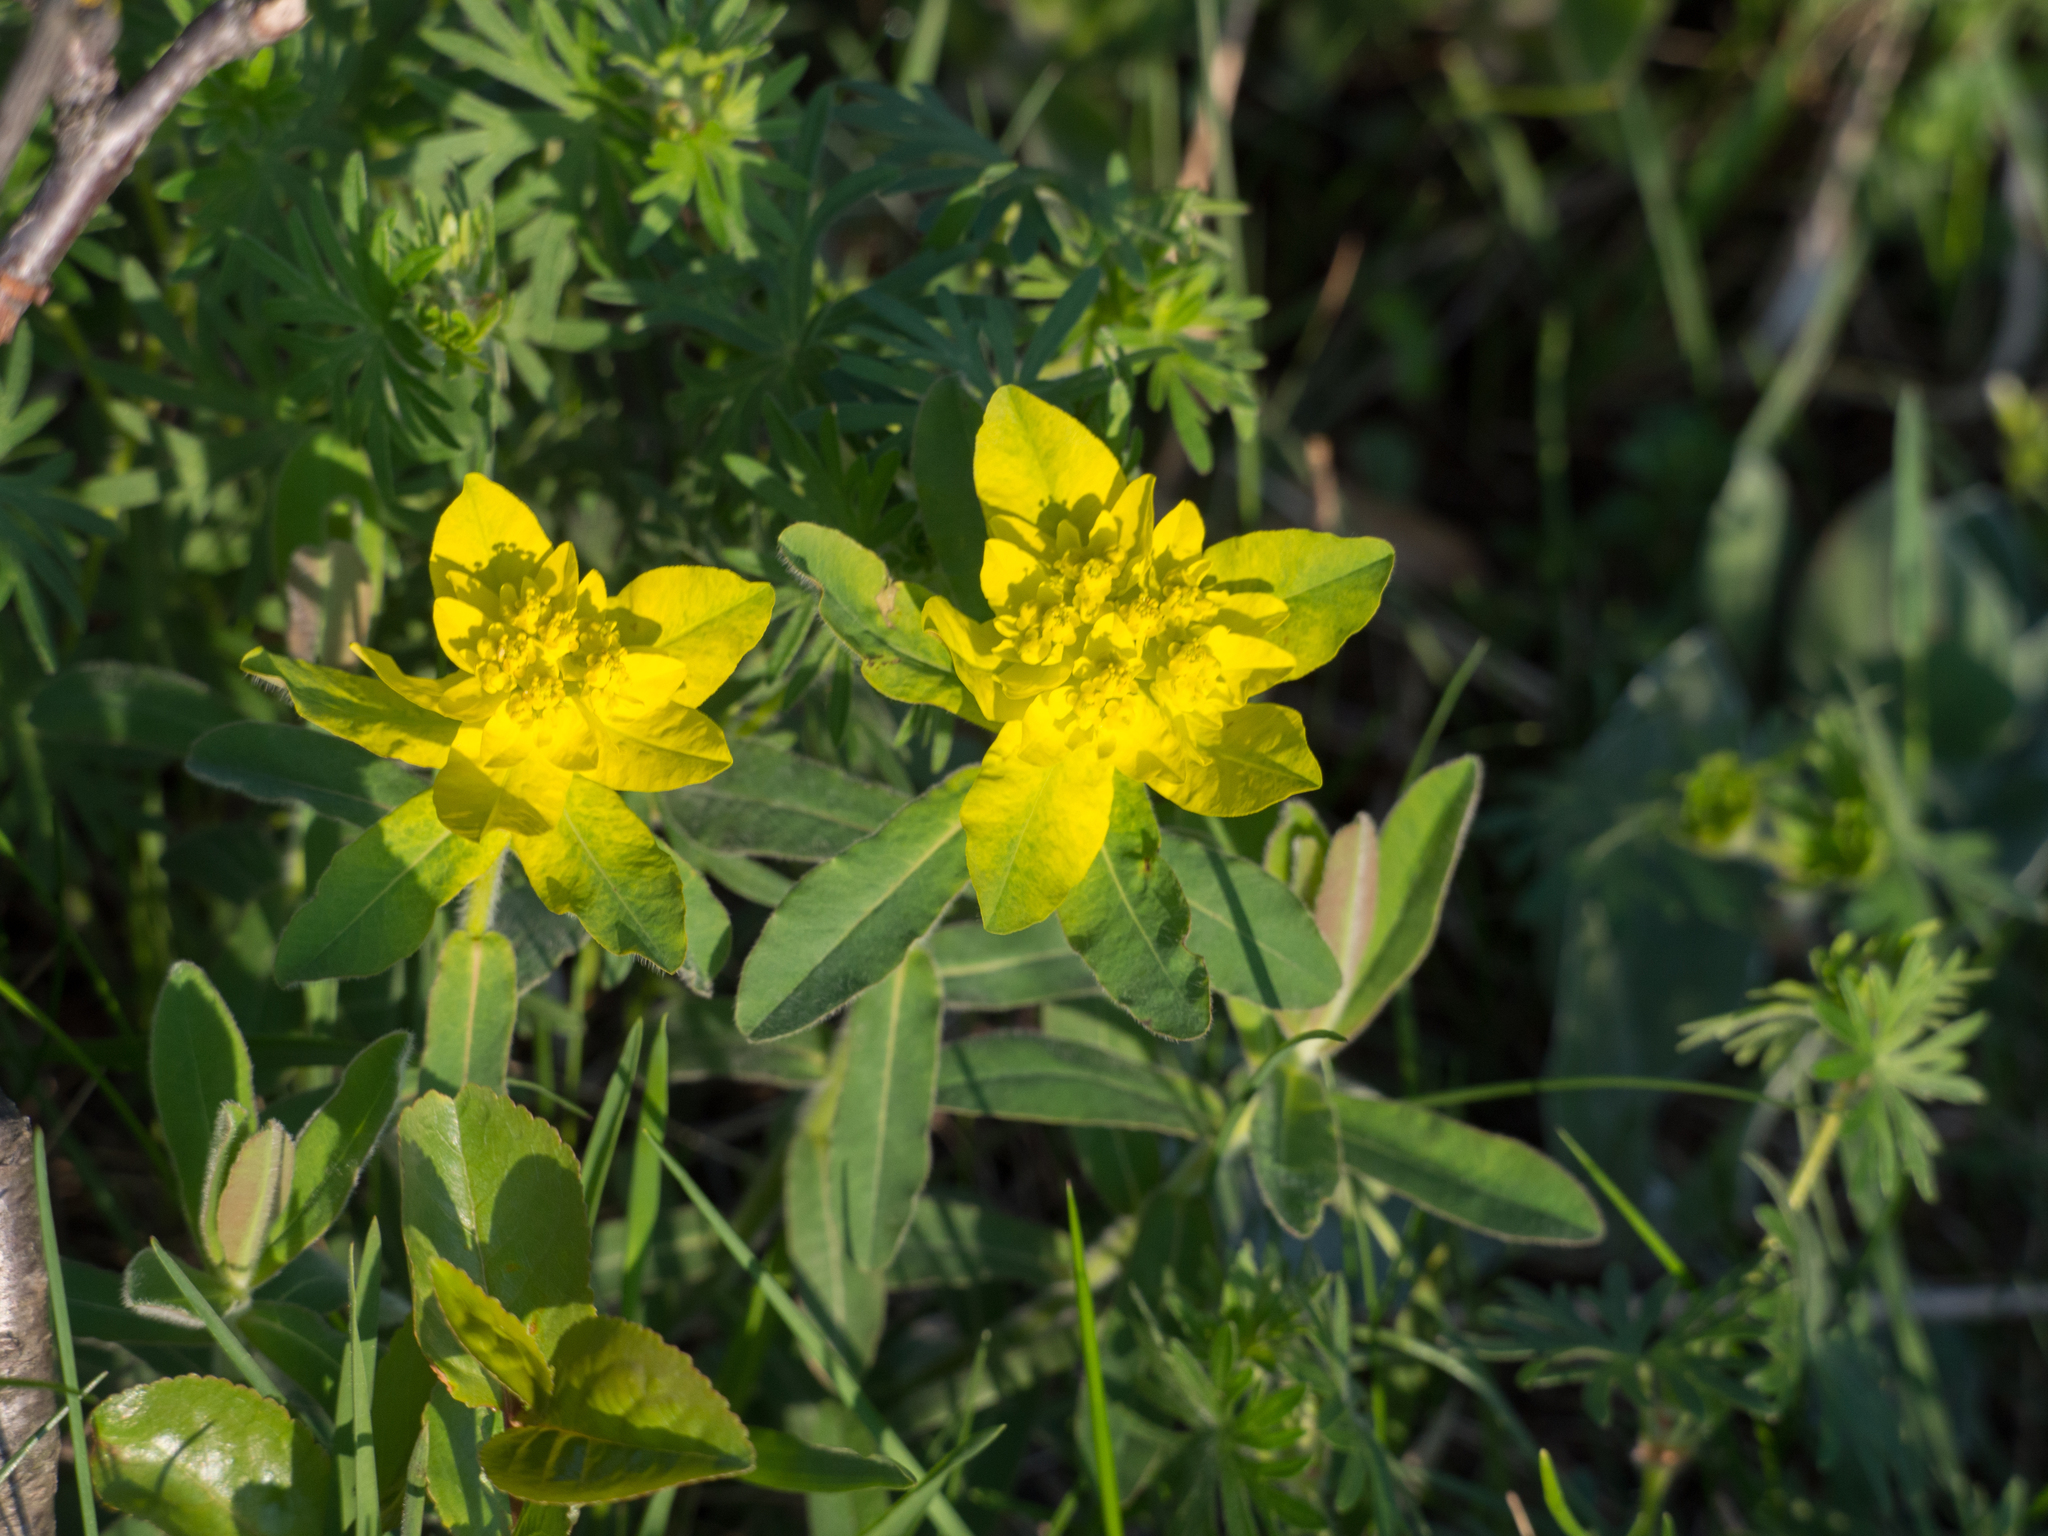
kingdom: Plantae
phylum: Tracheophyta
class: Magnoliopsida
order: Malpighiales
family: Euphorbiaceae
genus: Euphorbia
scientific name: Euphorbia epithymoides
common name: Cushion spurge
